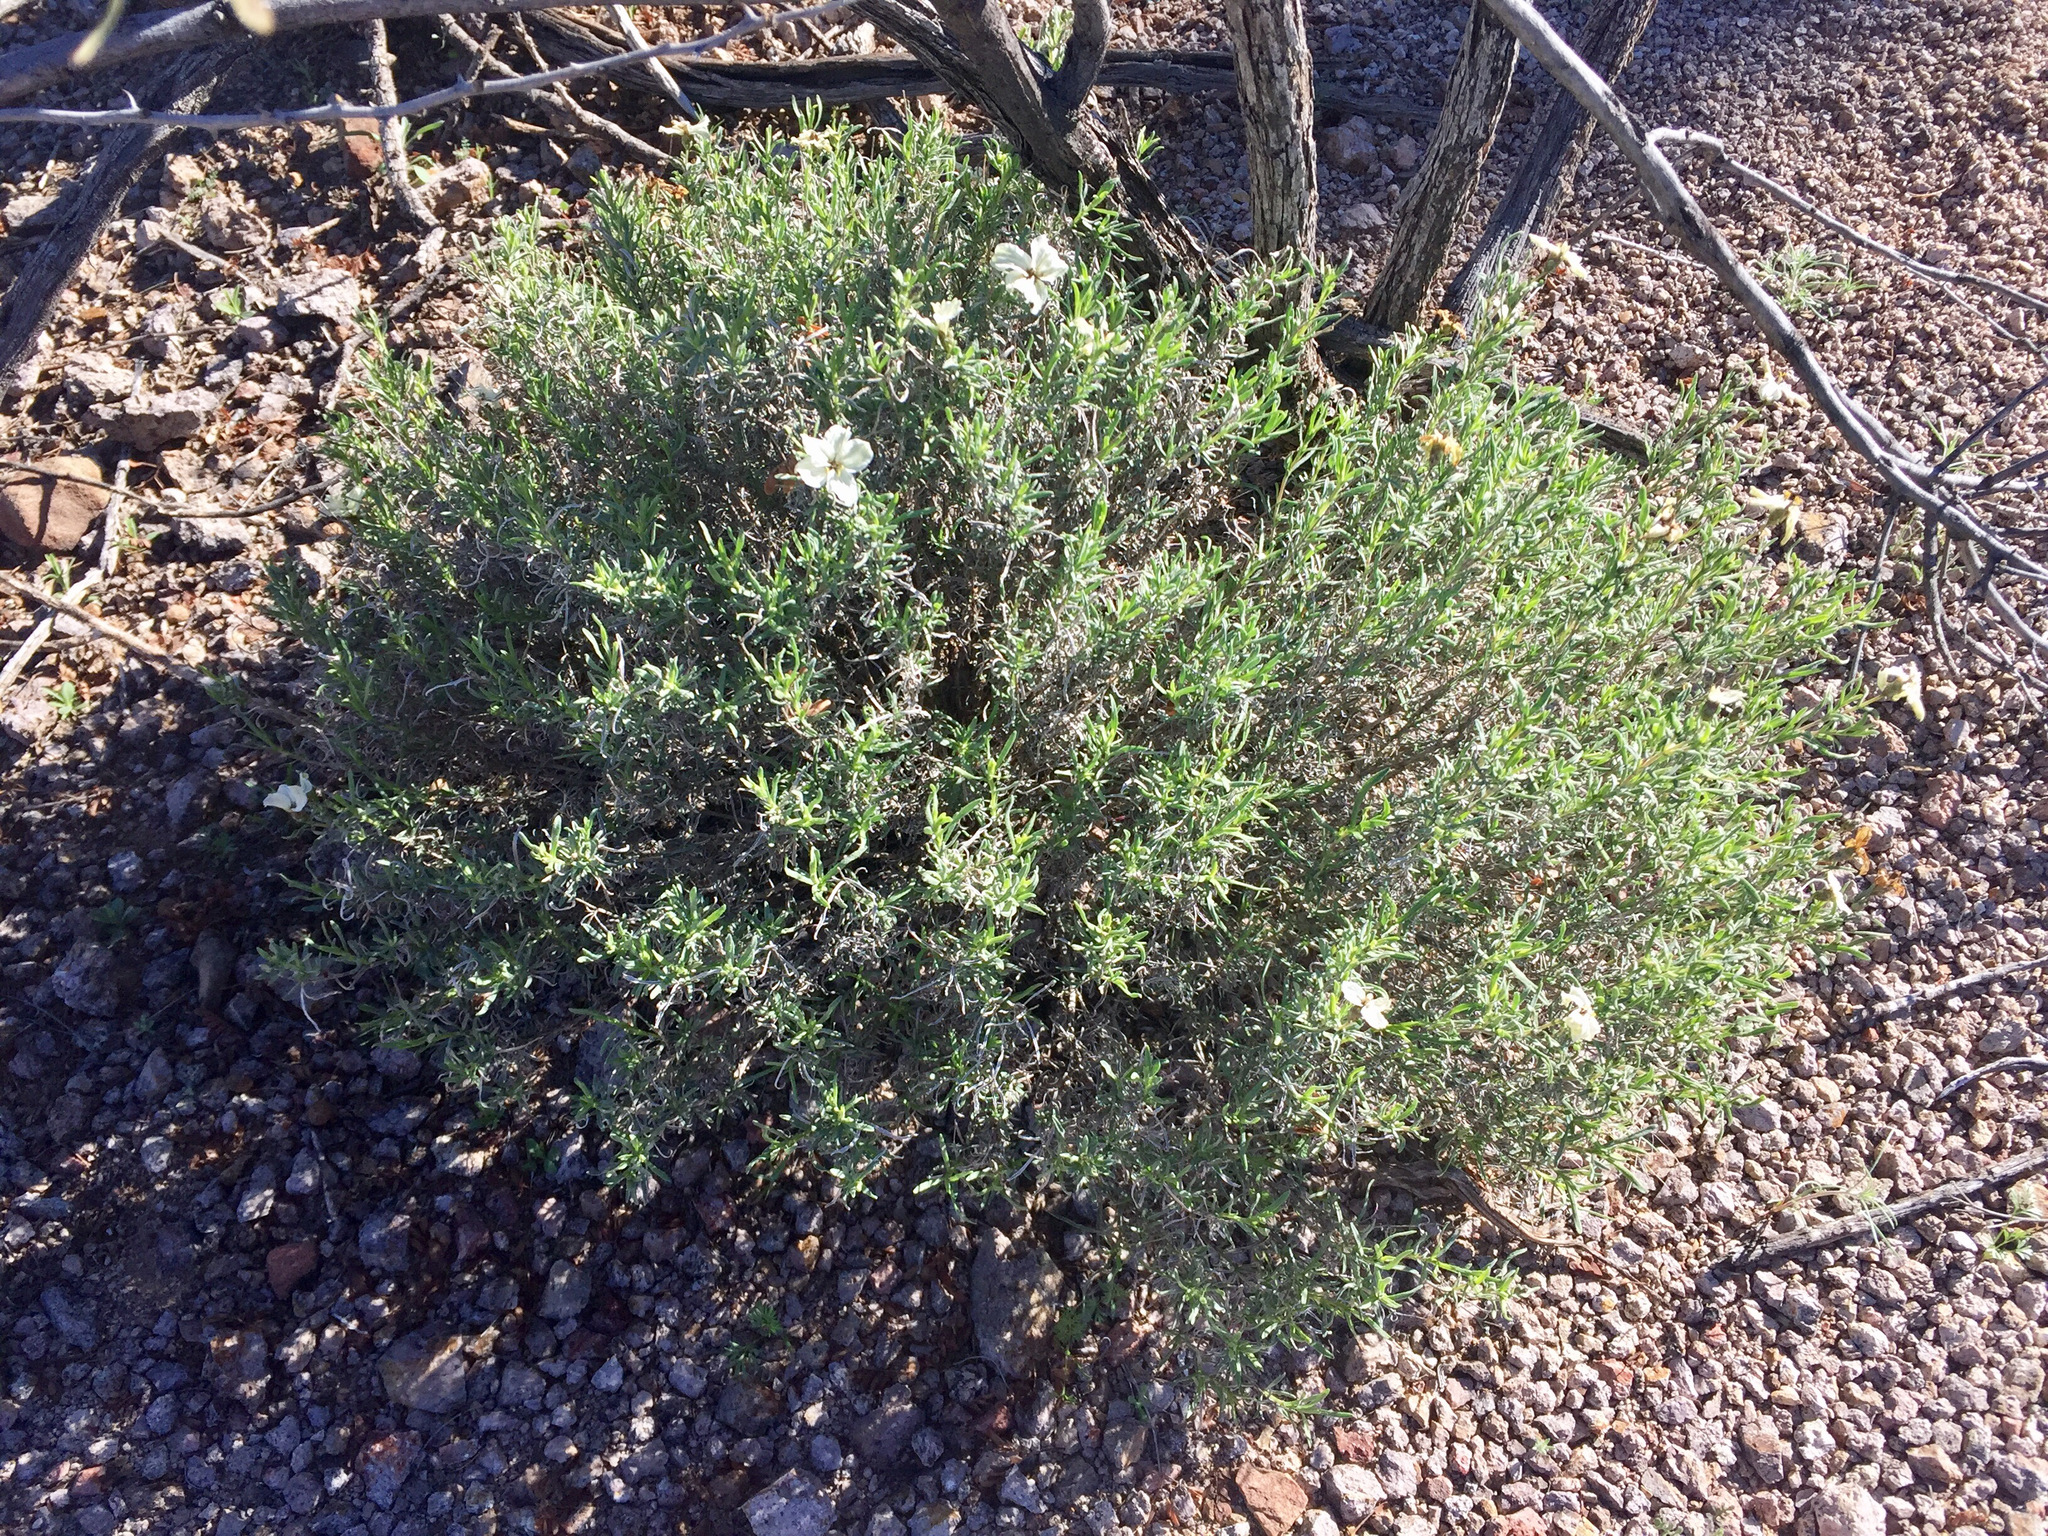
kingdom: Plantae
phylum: Tracheophyta
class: Magnoliopsida
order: Asterales
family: Asteraceae
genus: Zinnia
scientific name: Zinnia acerosa
